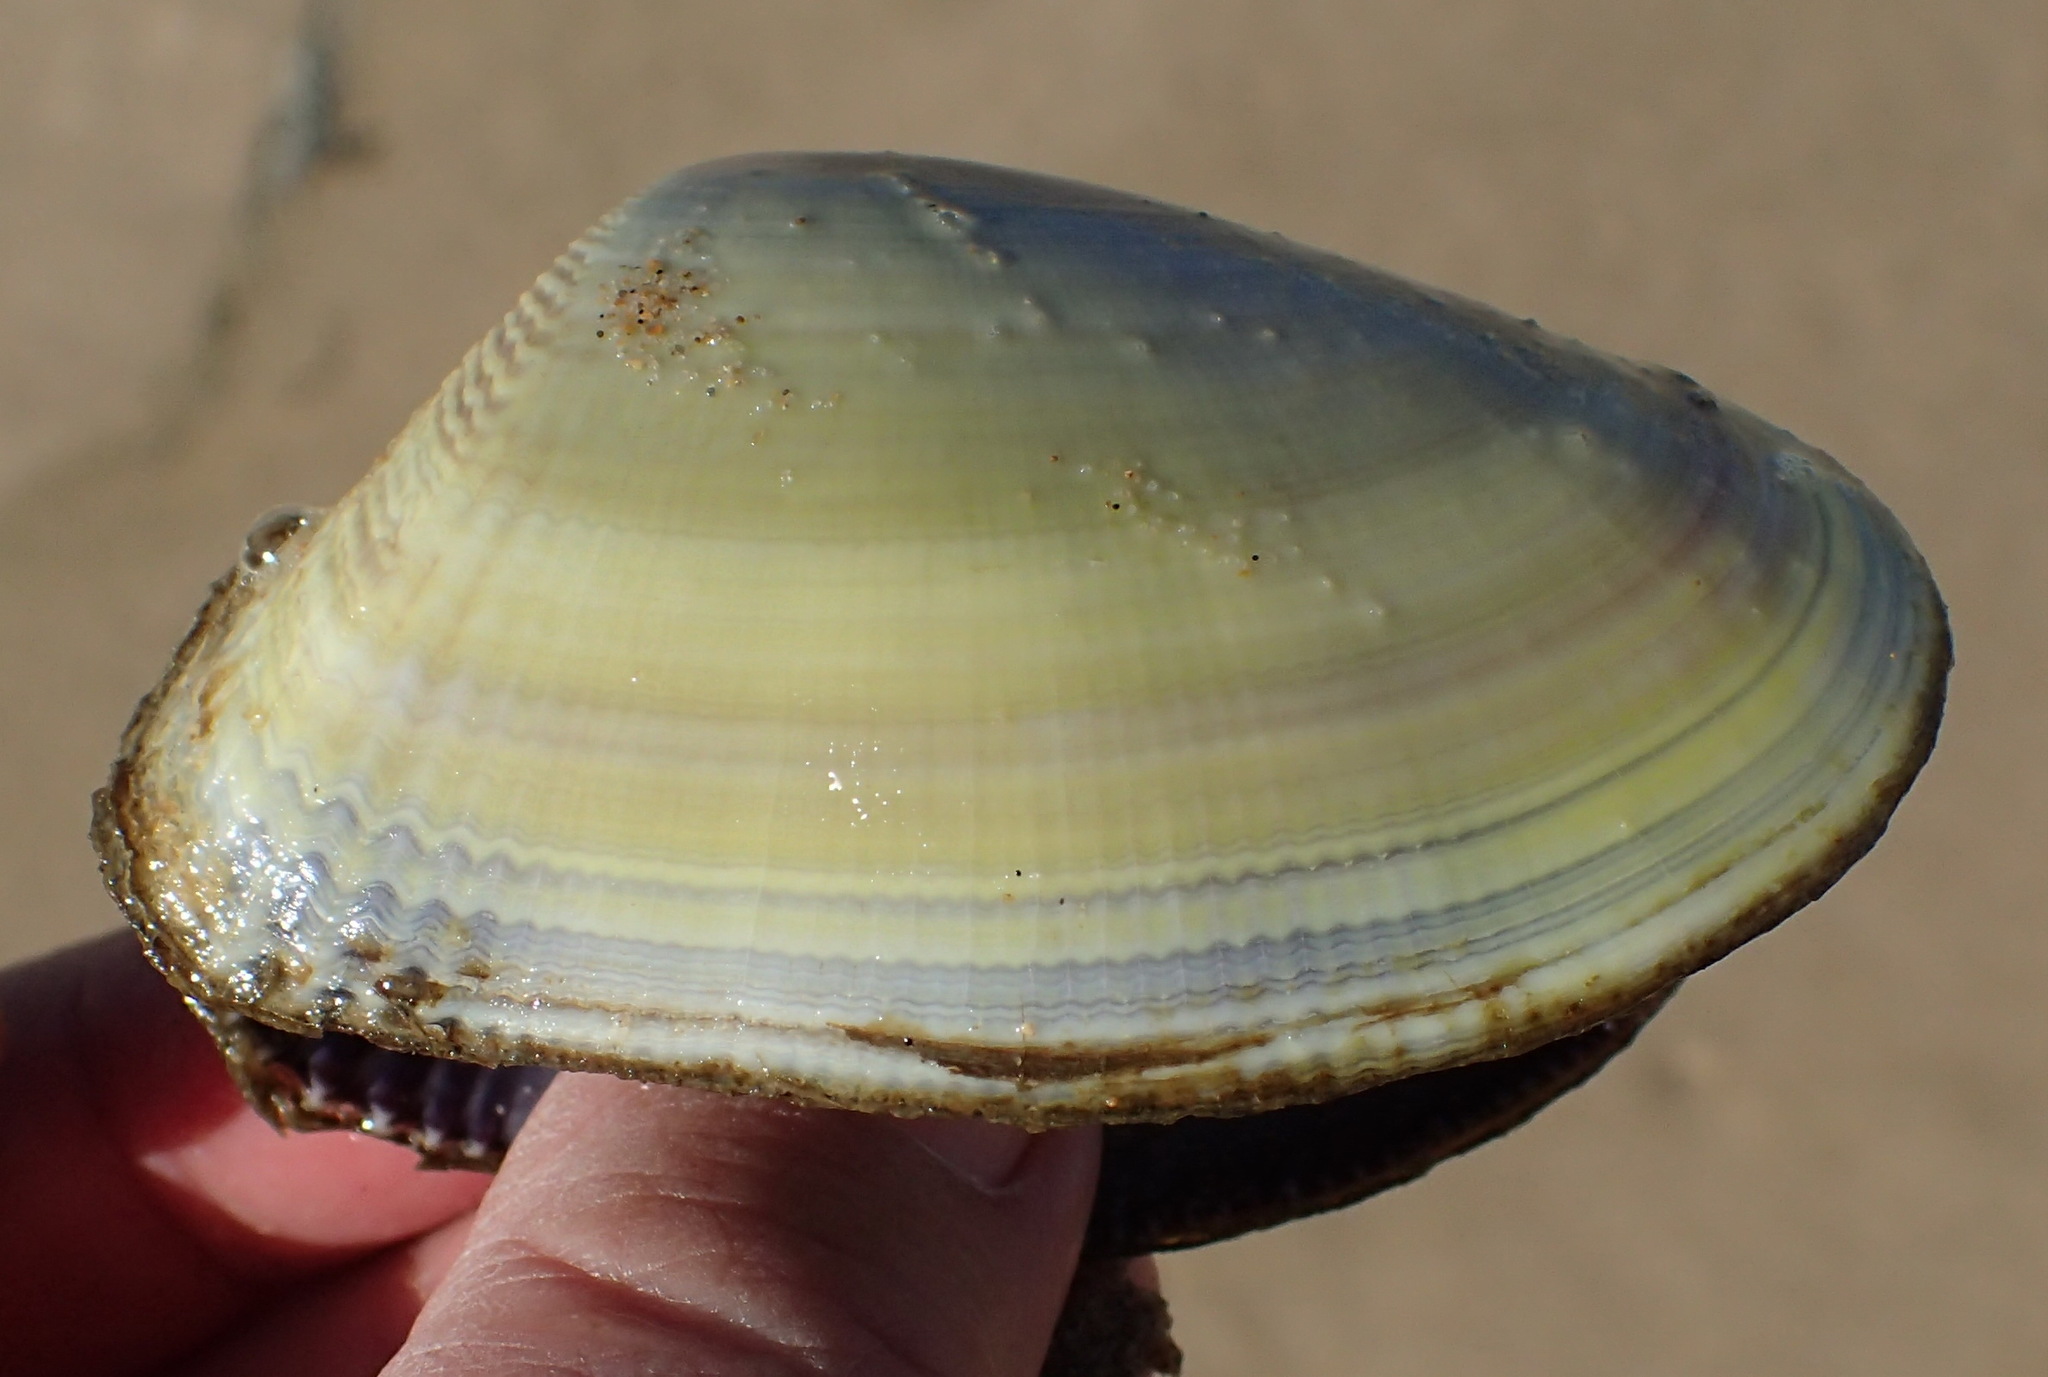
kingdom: Animalia
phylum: Mollusca
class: Bivalvia
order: Cardiida
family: Donacidae
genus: Donax
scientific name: Donax serra
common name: Giant south african wedge clam
